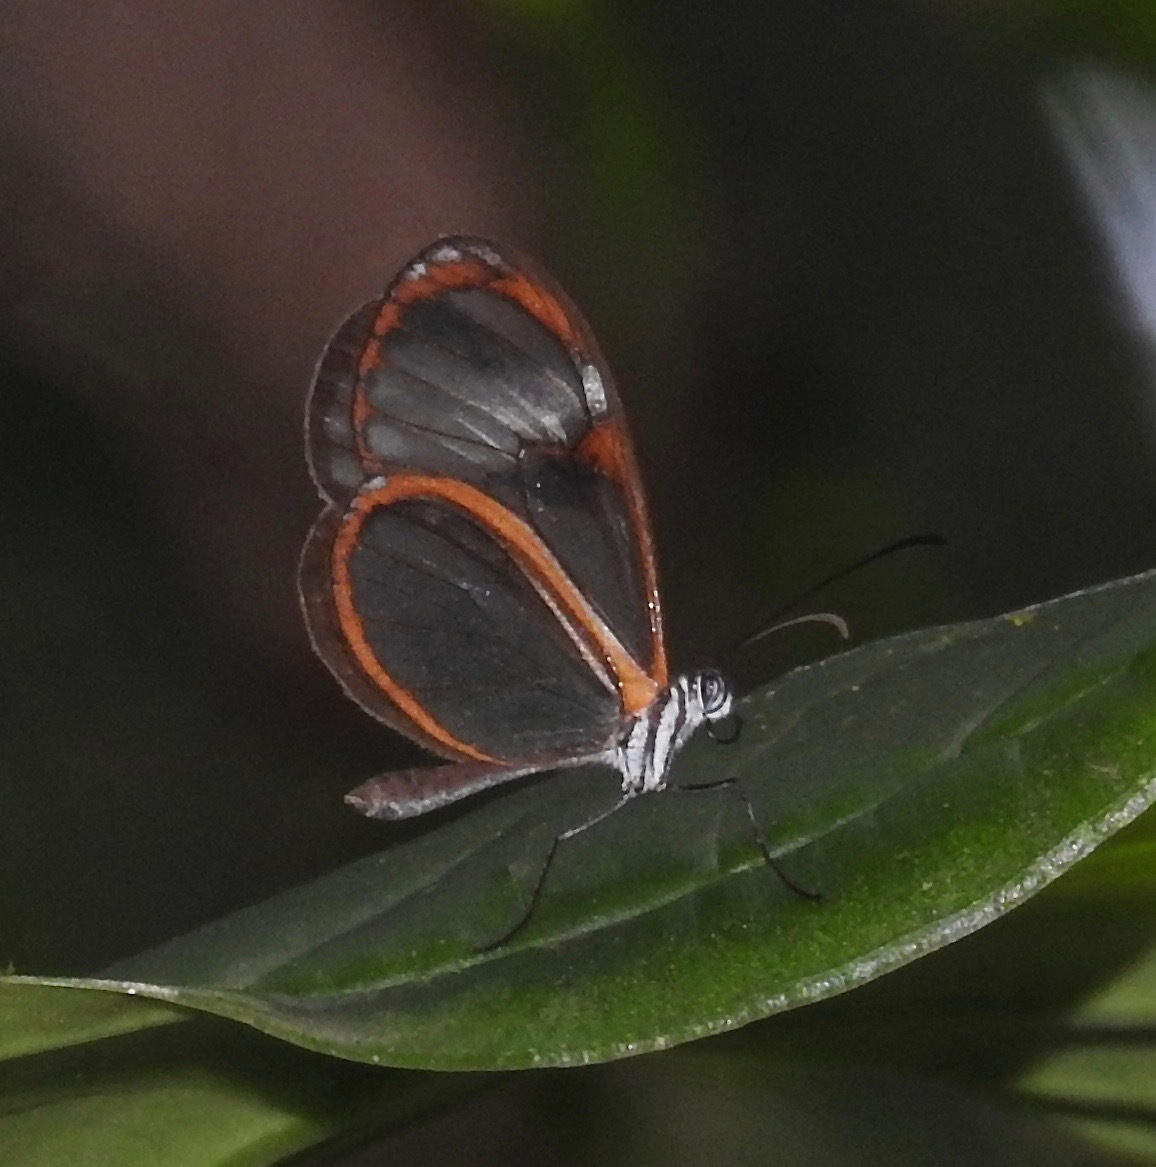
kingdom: Animalia
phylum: Arthropoda
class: Insecta
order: Lepidoptera
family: Nymphalidae
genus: Pteronymia
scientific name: Pteronymia alissa
